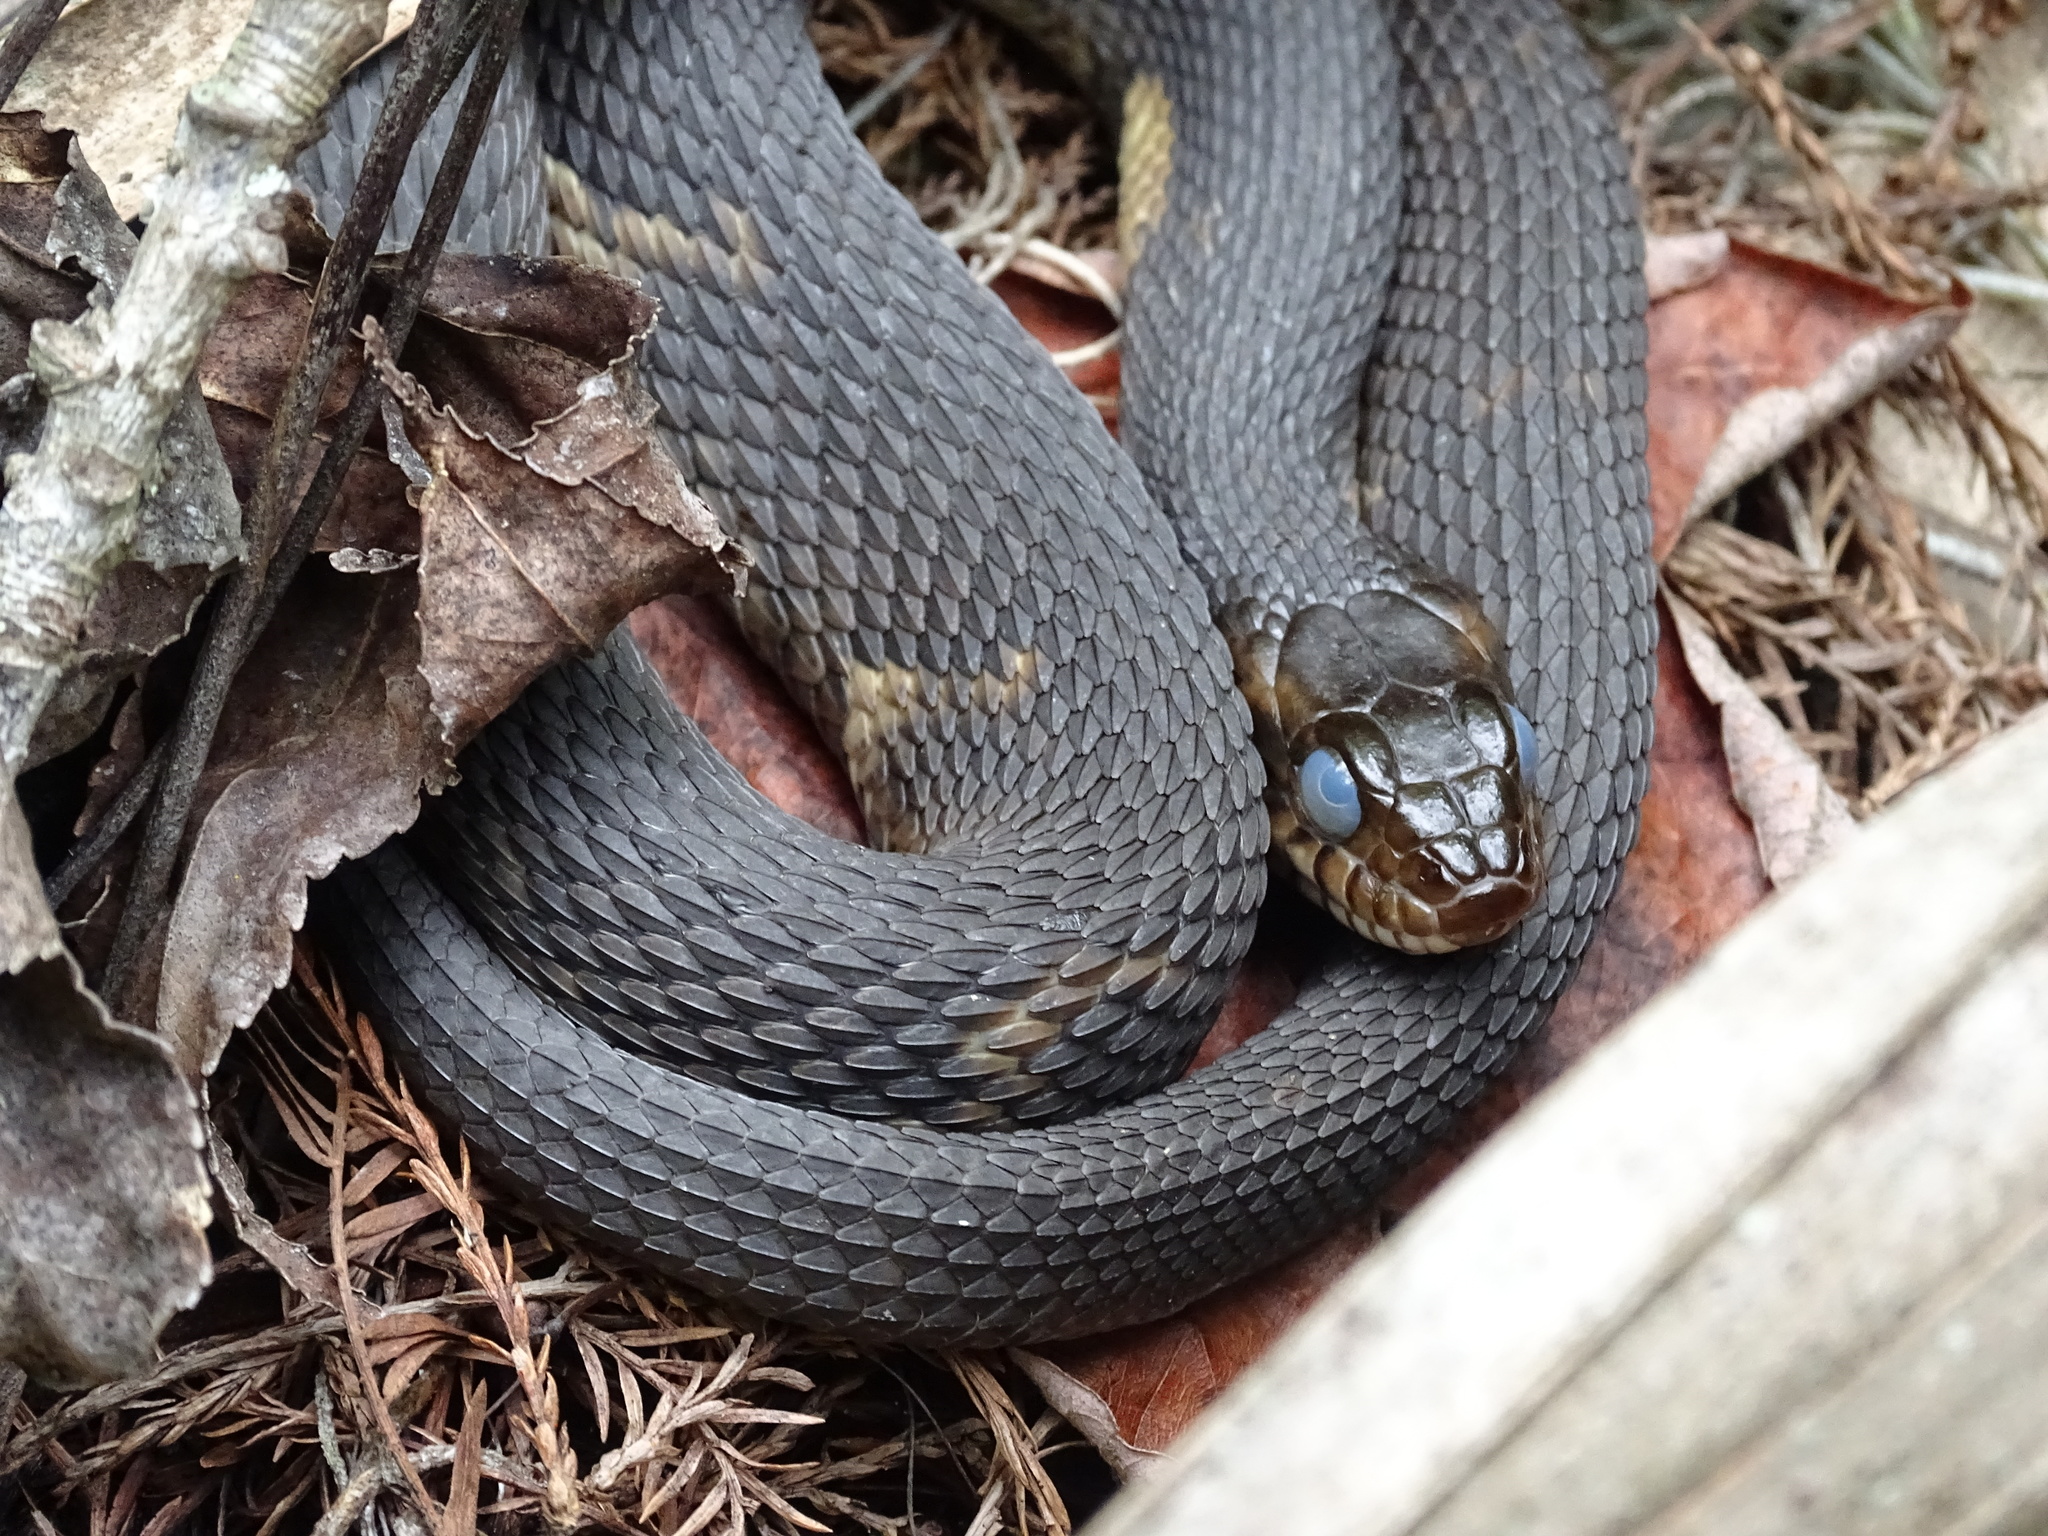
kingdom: Animalia
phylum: Chordata
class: Squamata
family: Colubridae
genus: Nerodia
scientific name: Nerodia fasciata
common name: Southern water snake
